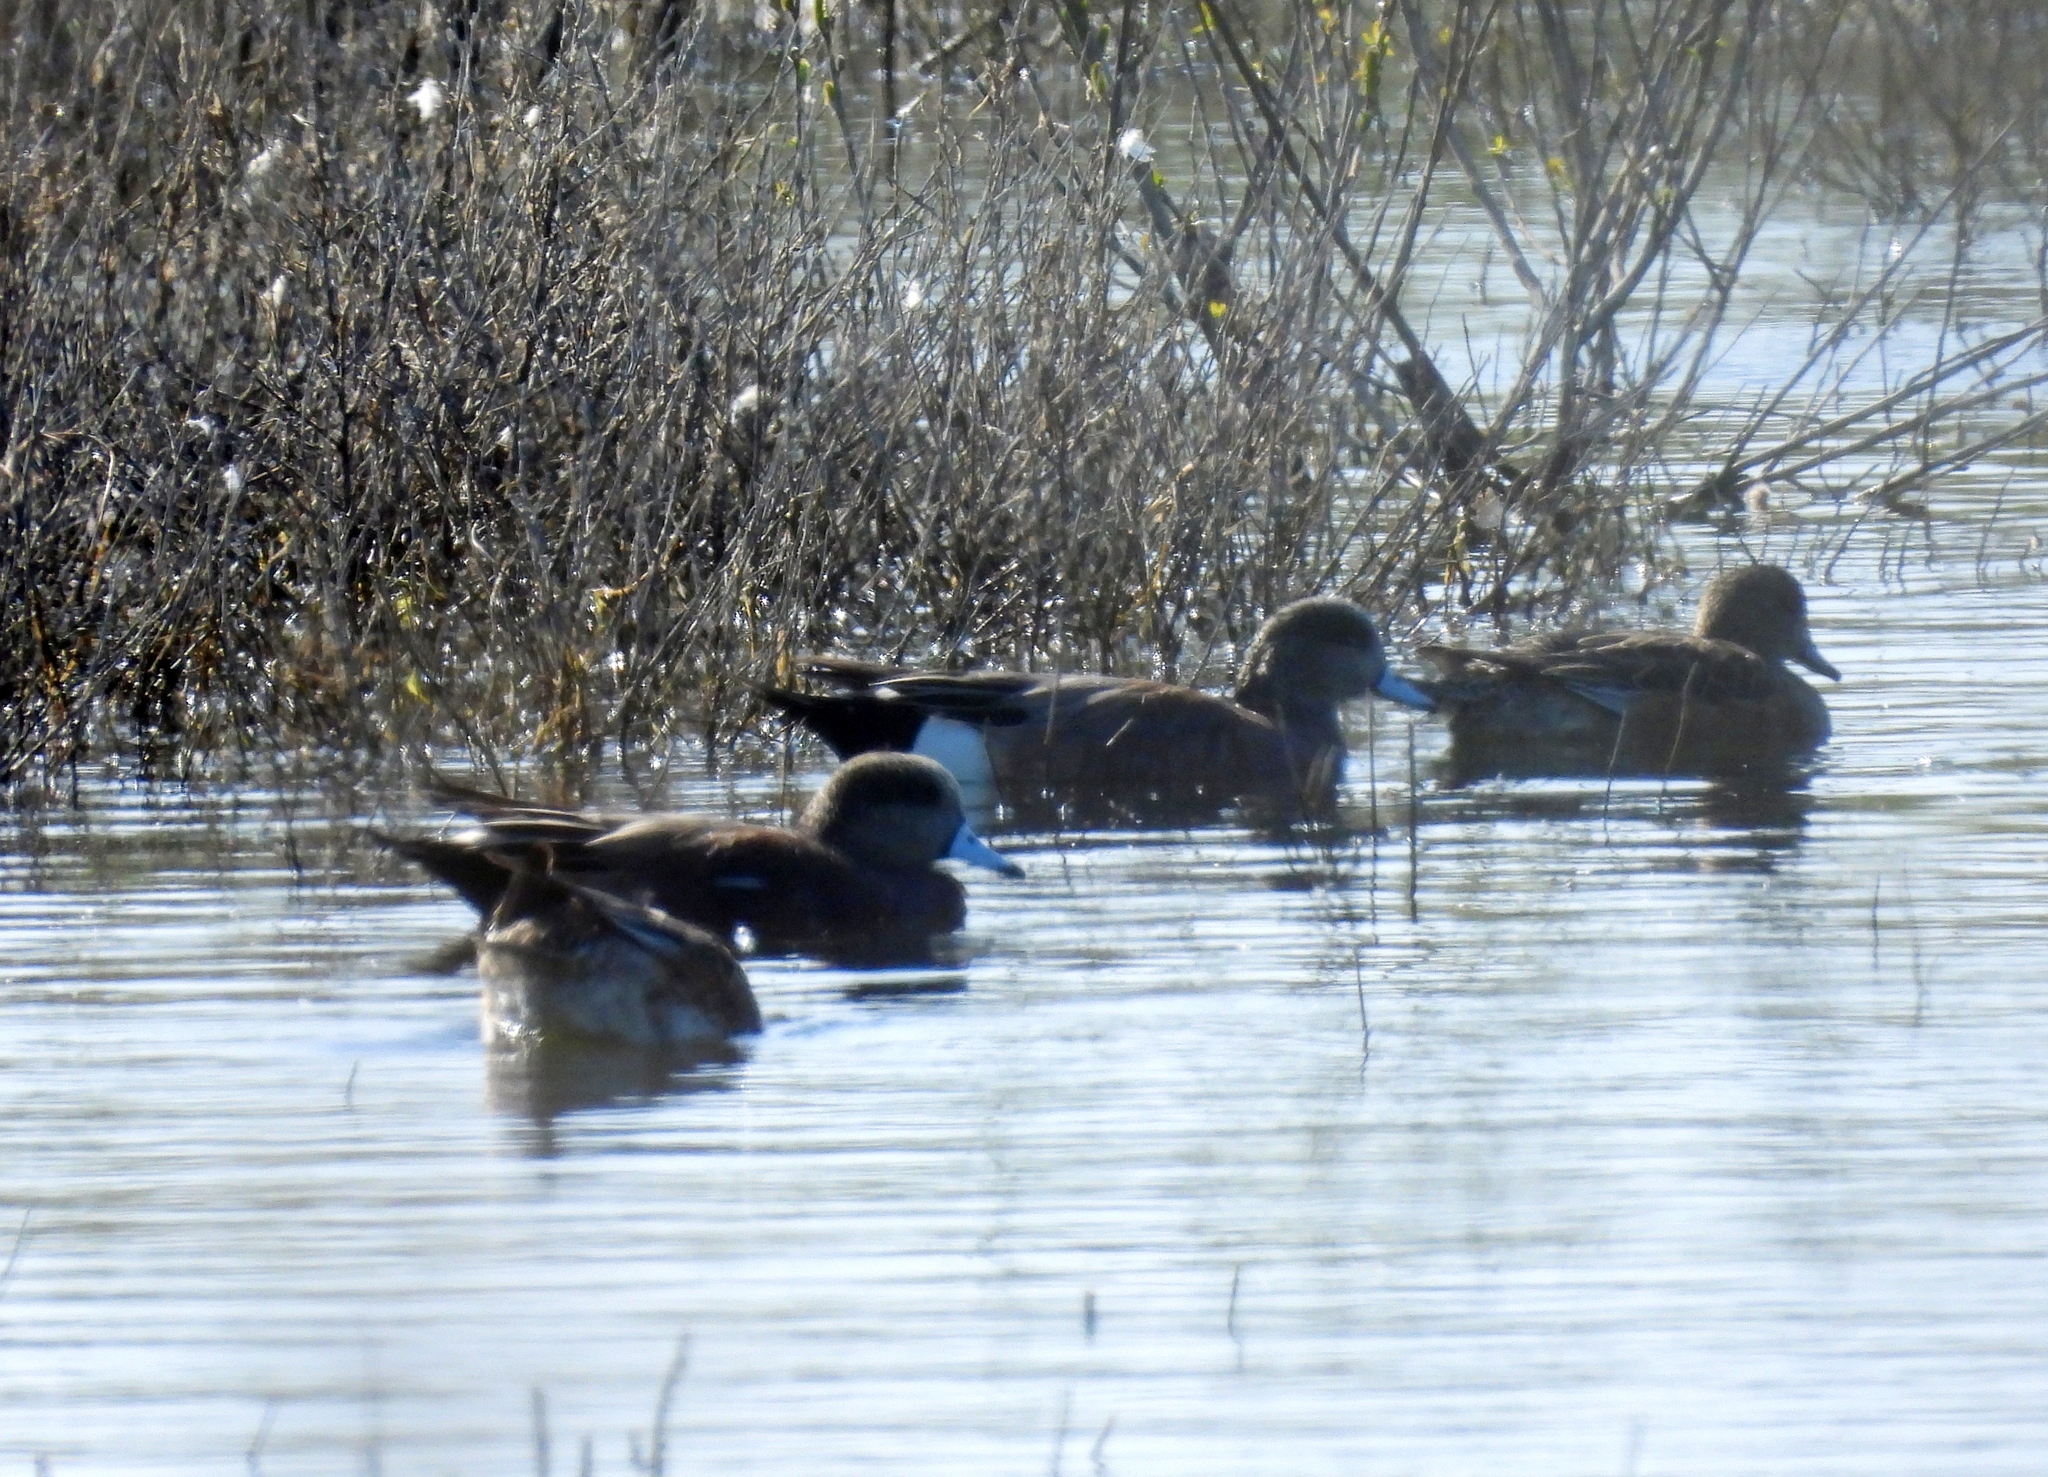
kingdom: Animalia
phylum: Chordata
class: Aves
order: Anseriformes
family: Anatidae
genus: Mareca
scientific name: Mareca americana
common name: American wigeon
